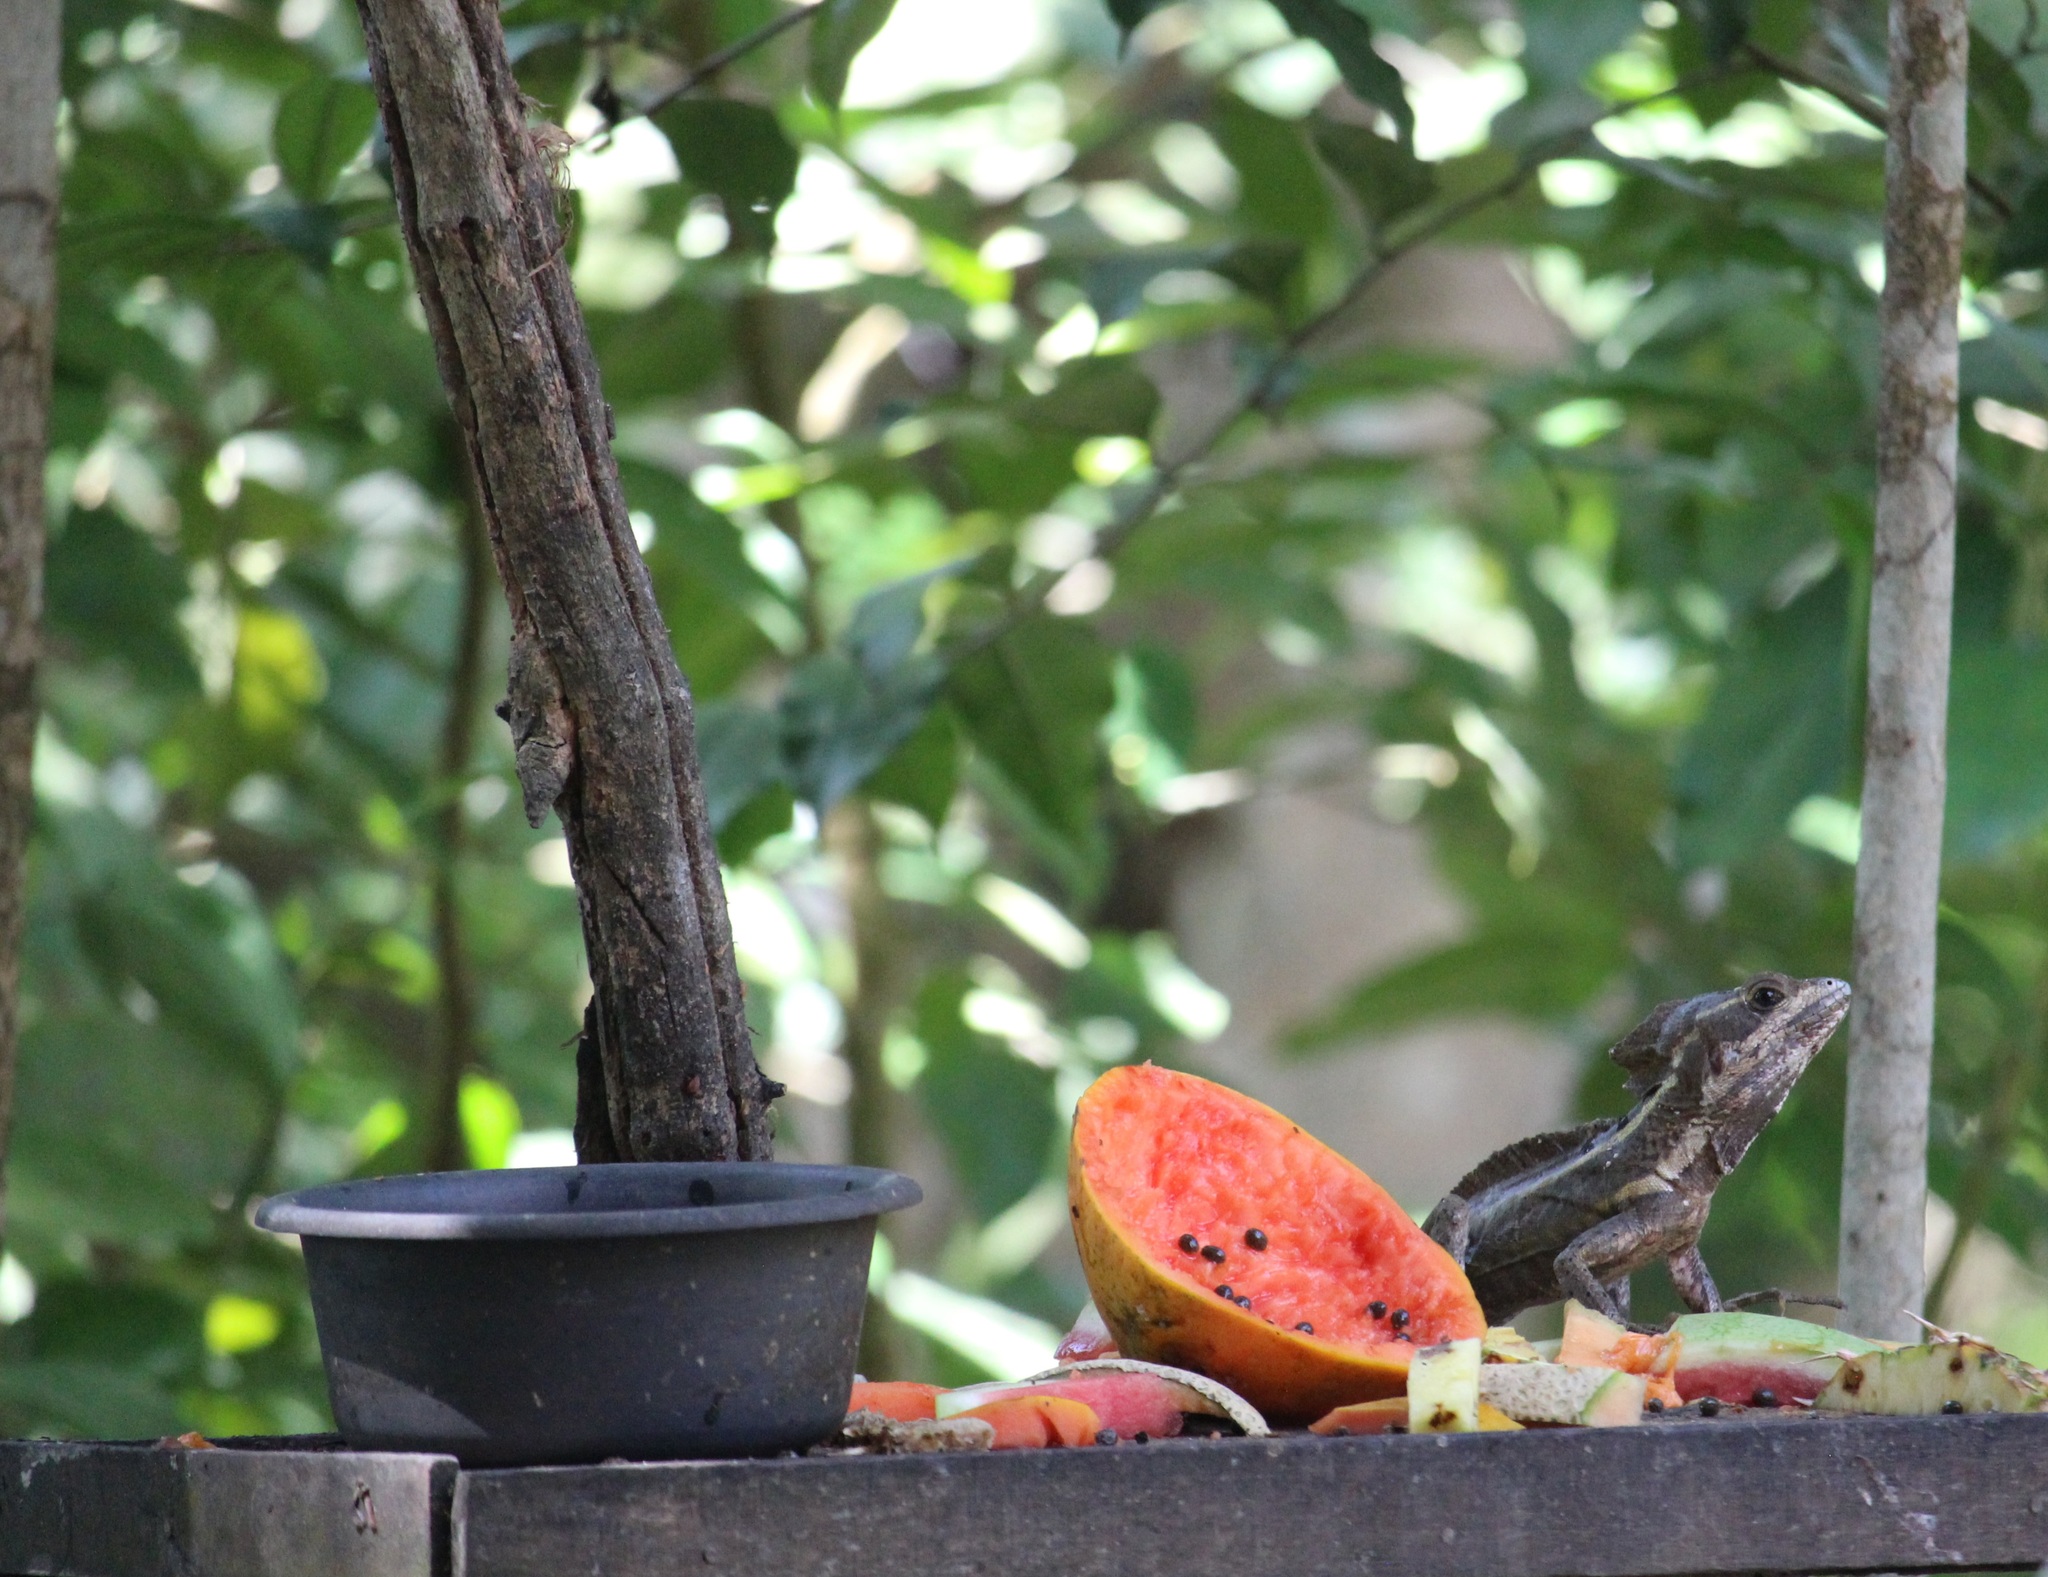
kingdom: Animalia
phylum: Chordata
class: Squamata
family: Corytophanidae
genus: Basiliscus
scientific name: Basiliscus vittatus
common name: Brown basilisk
